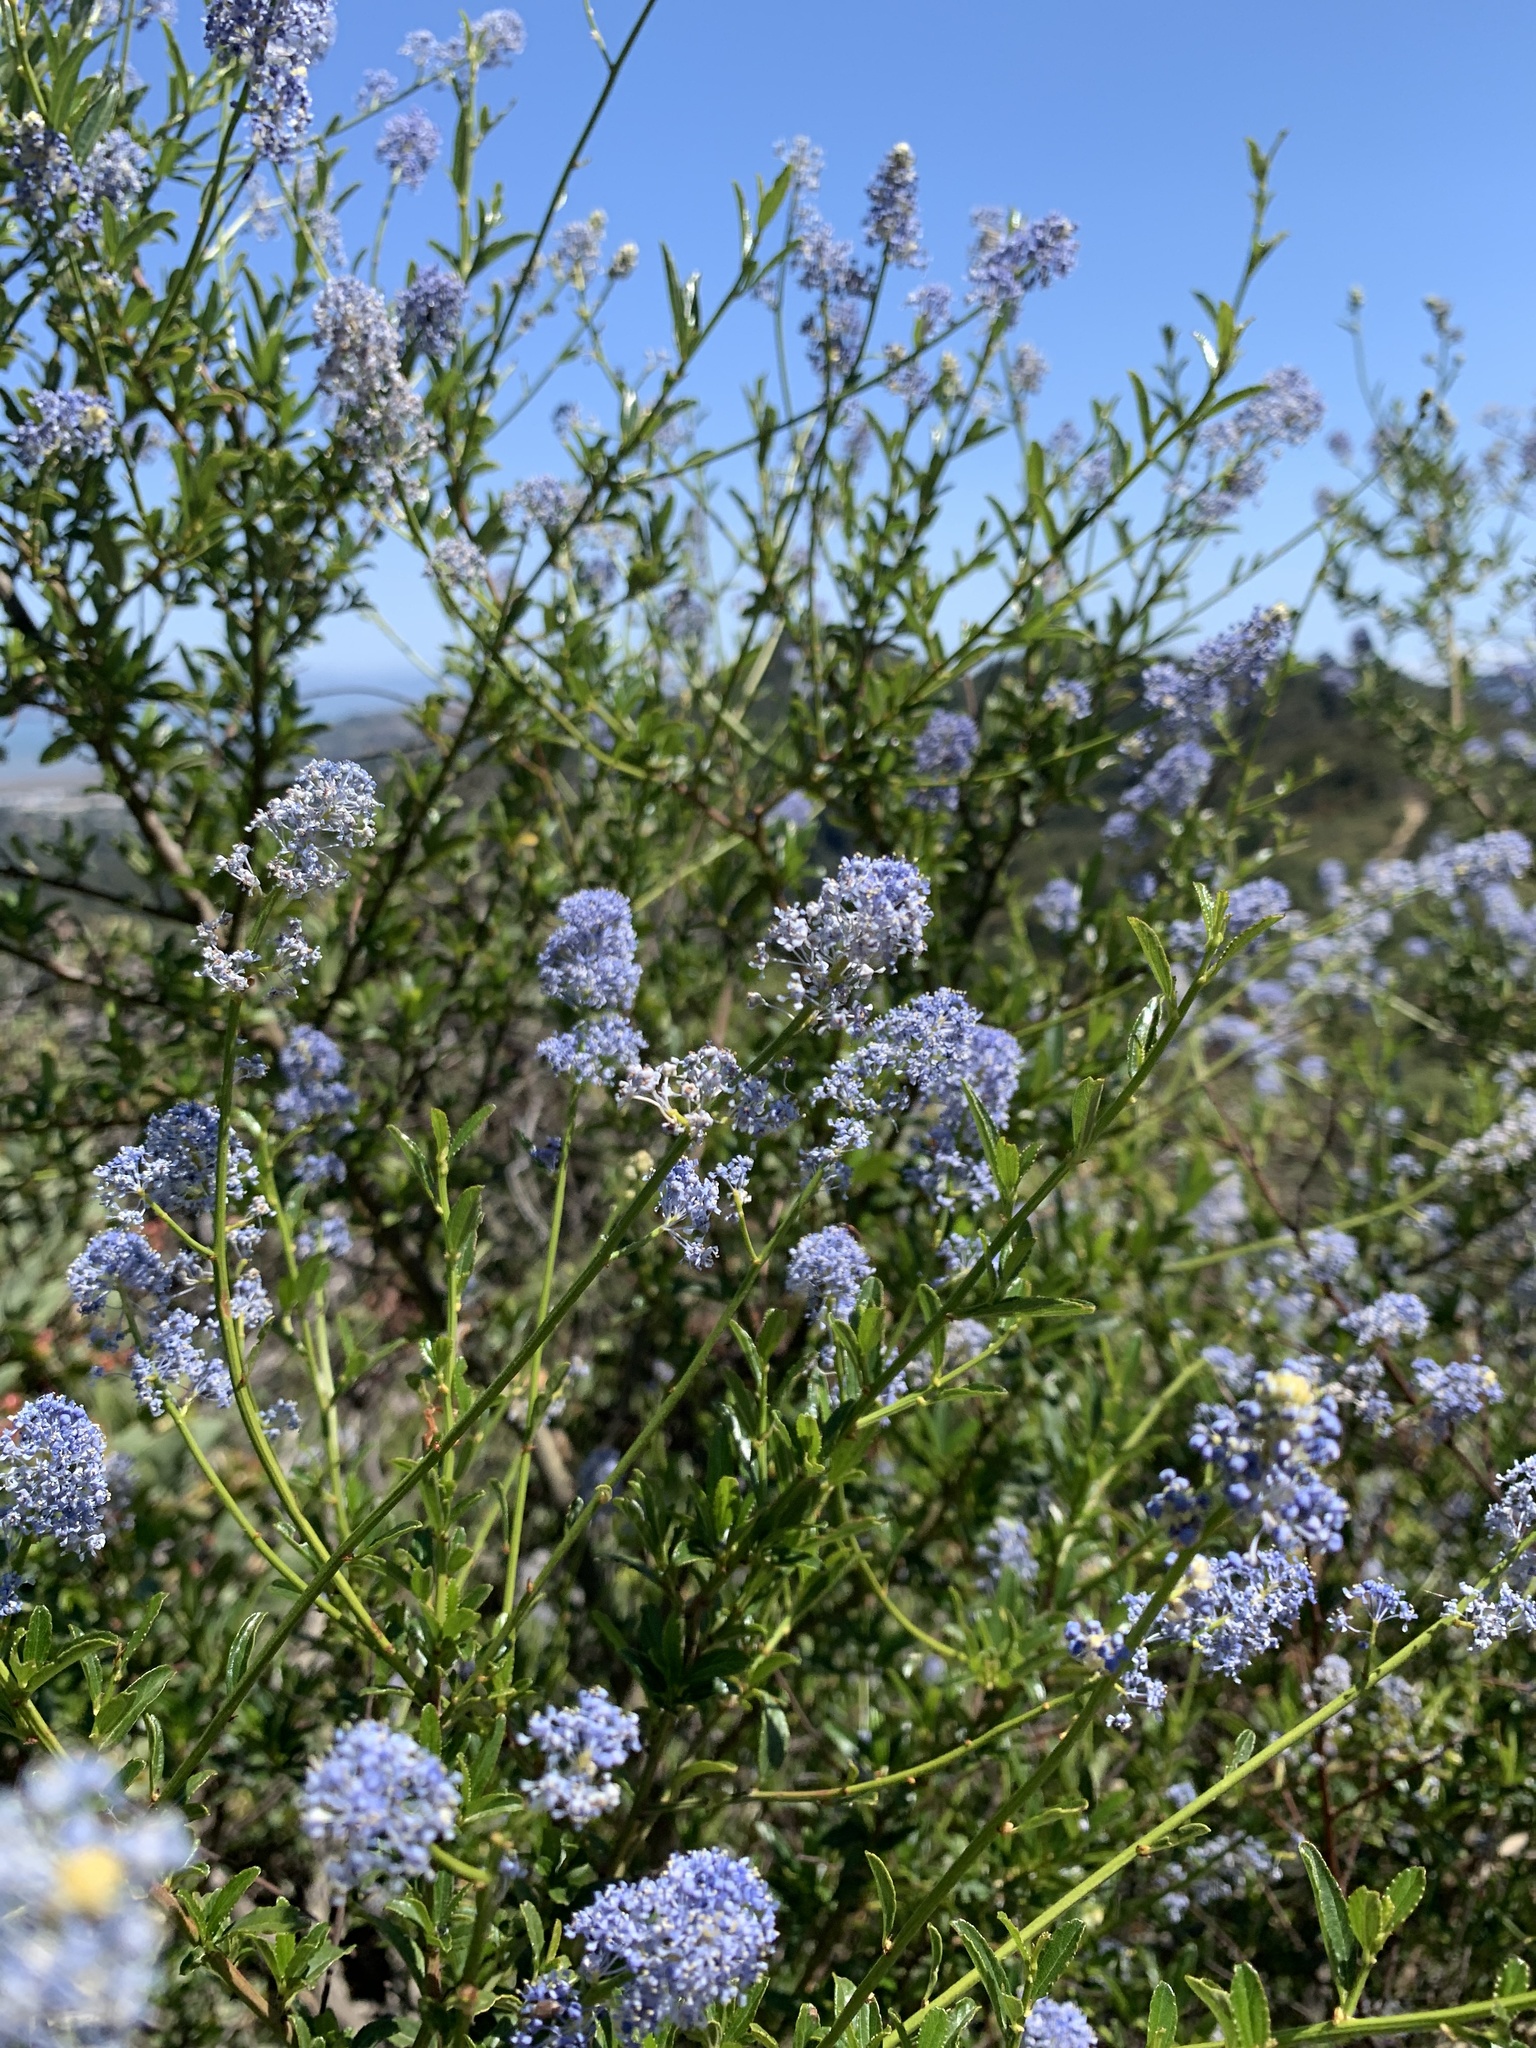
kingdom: Plantae
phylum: Tracheophyta
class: Magnoliopsida
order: Rosales
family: Rhamnaceae
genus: Ceanothus
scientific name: Ceanothus thyrsiflorus
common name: California-lilac
